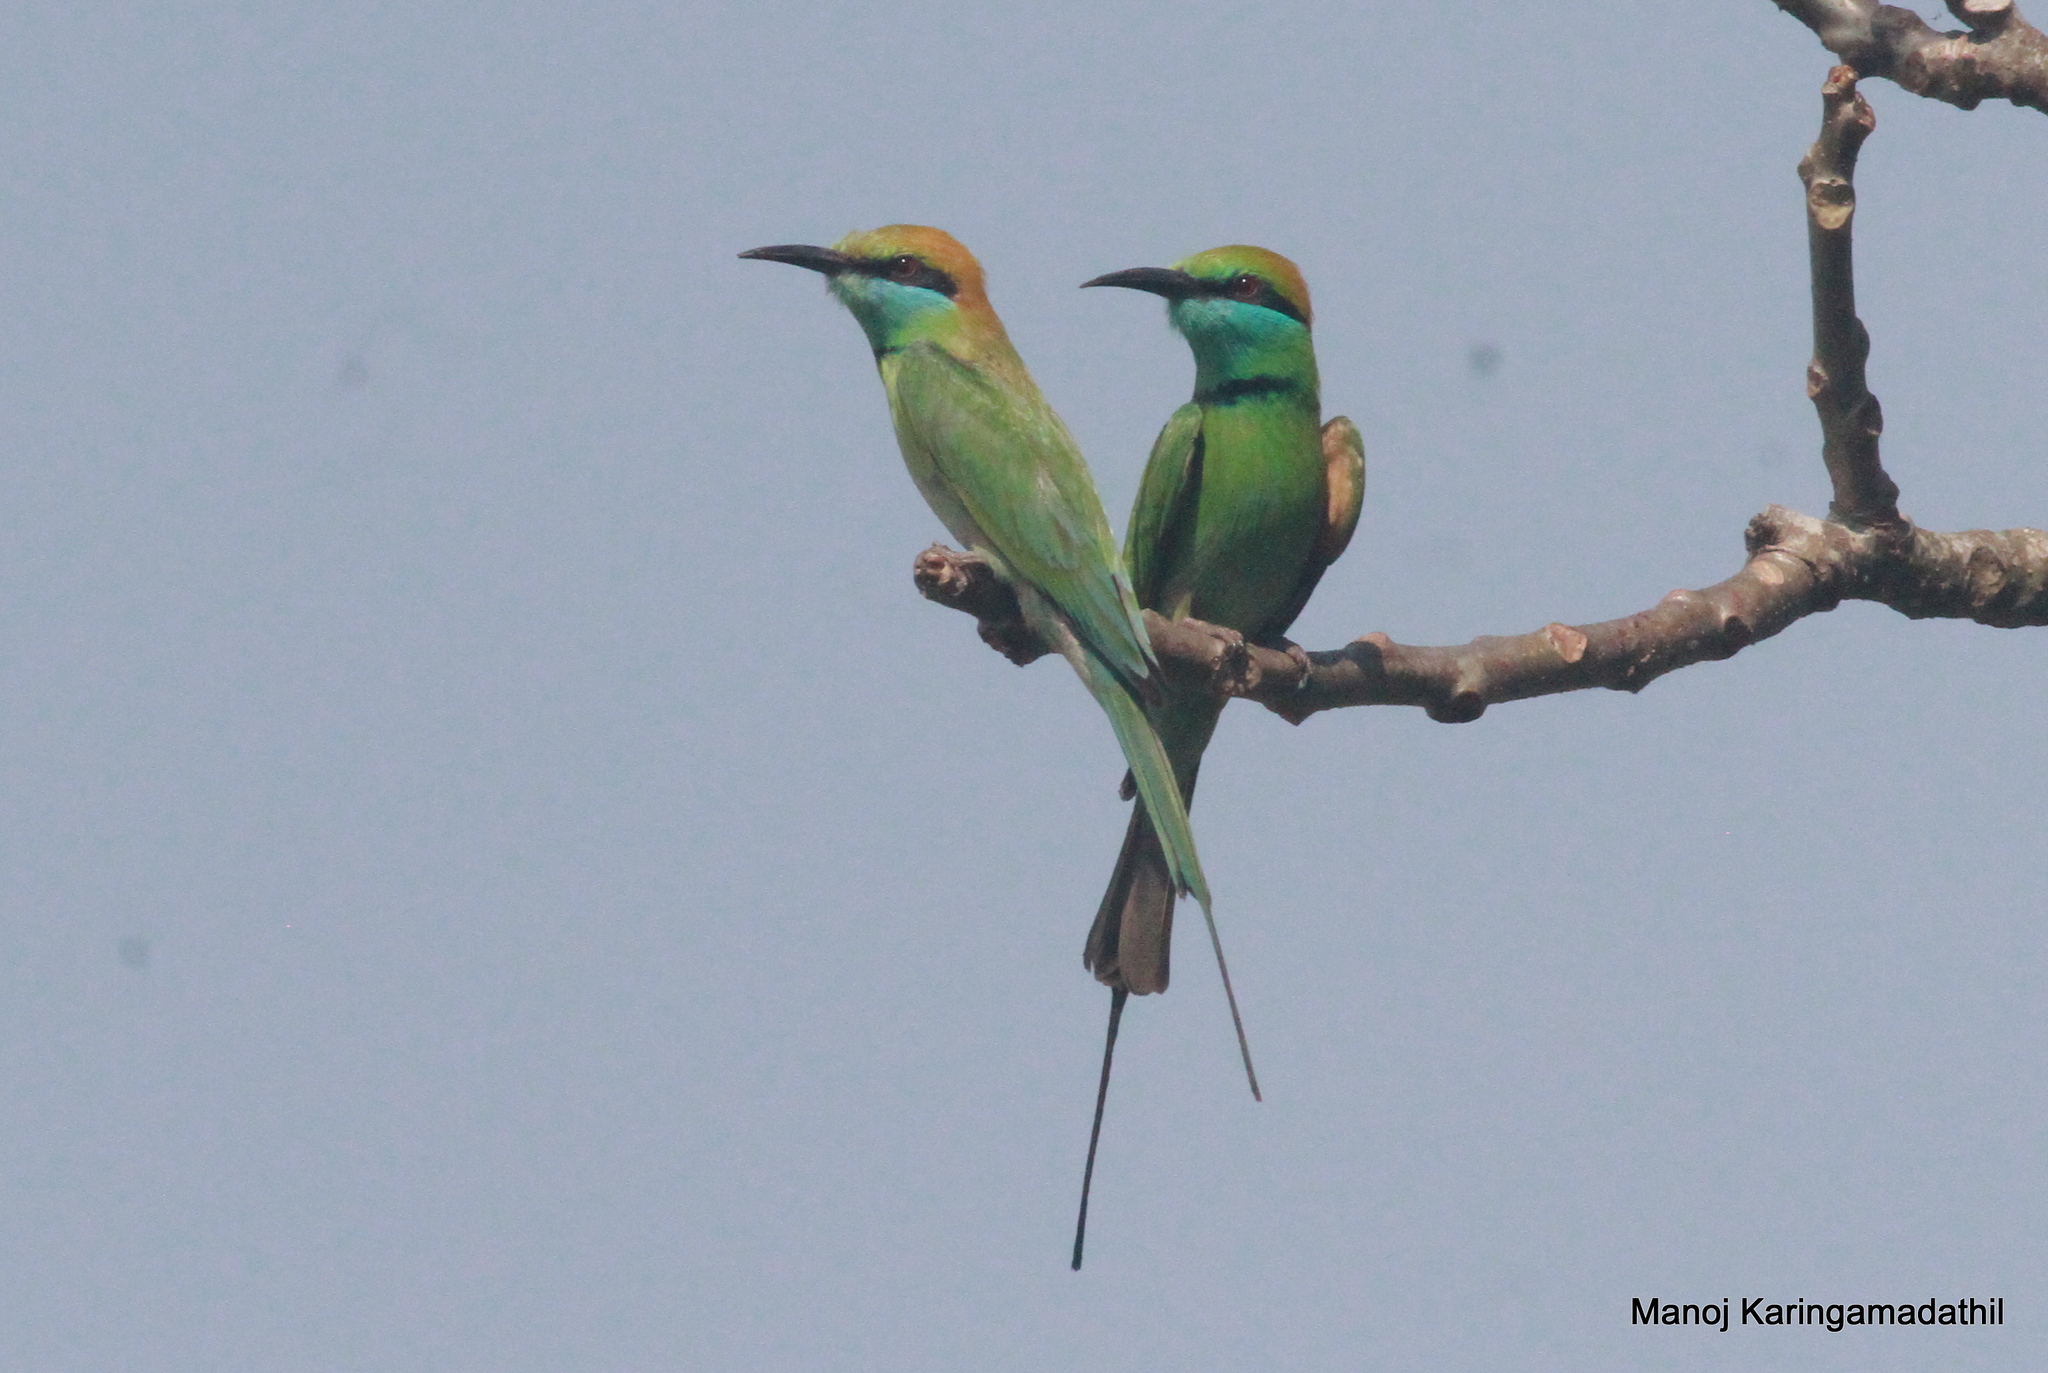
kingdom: Animalia
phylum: Chordata
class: Aves
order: Coraciiformes
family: Meropidae
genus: Merops
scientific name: Merops orientalis
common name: Green bee-eater
